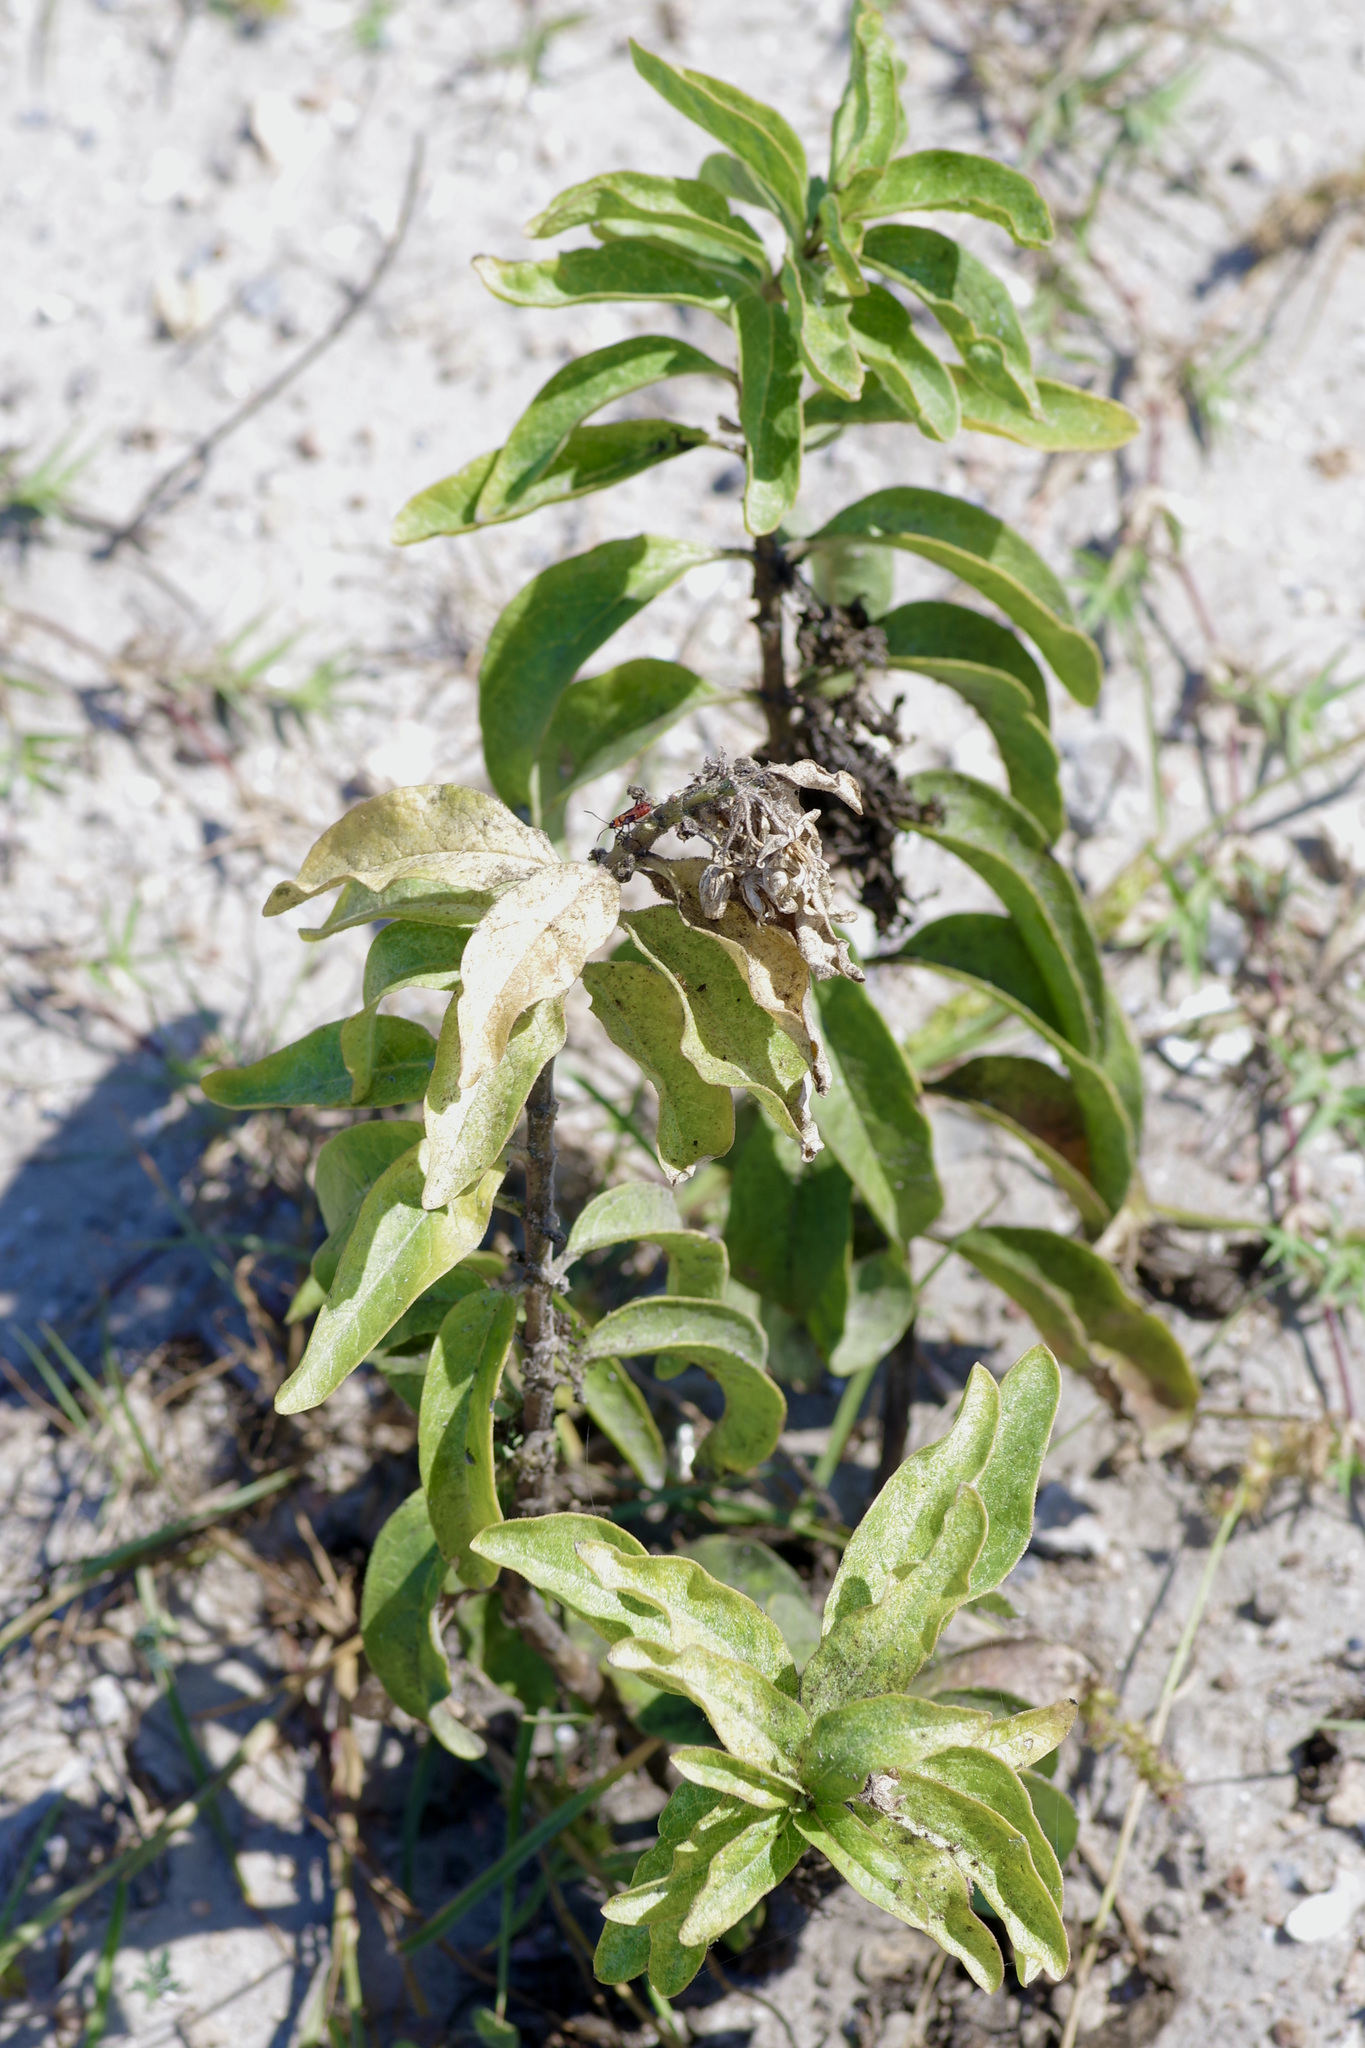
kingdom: Plantae
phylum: Tracheophyta
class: Magnoliopsida
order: Gentianales
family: Apocynaceae
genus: Asclepias
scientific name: Asclepias oenotheroides
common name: Zizotes milkweed
